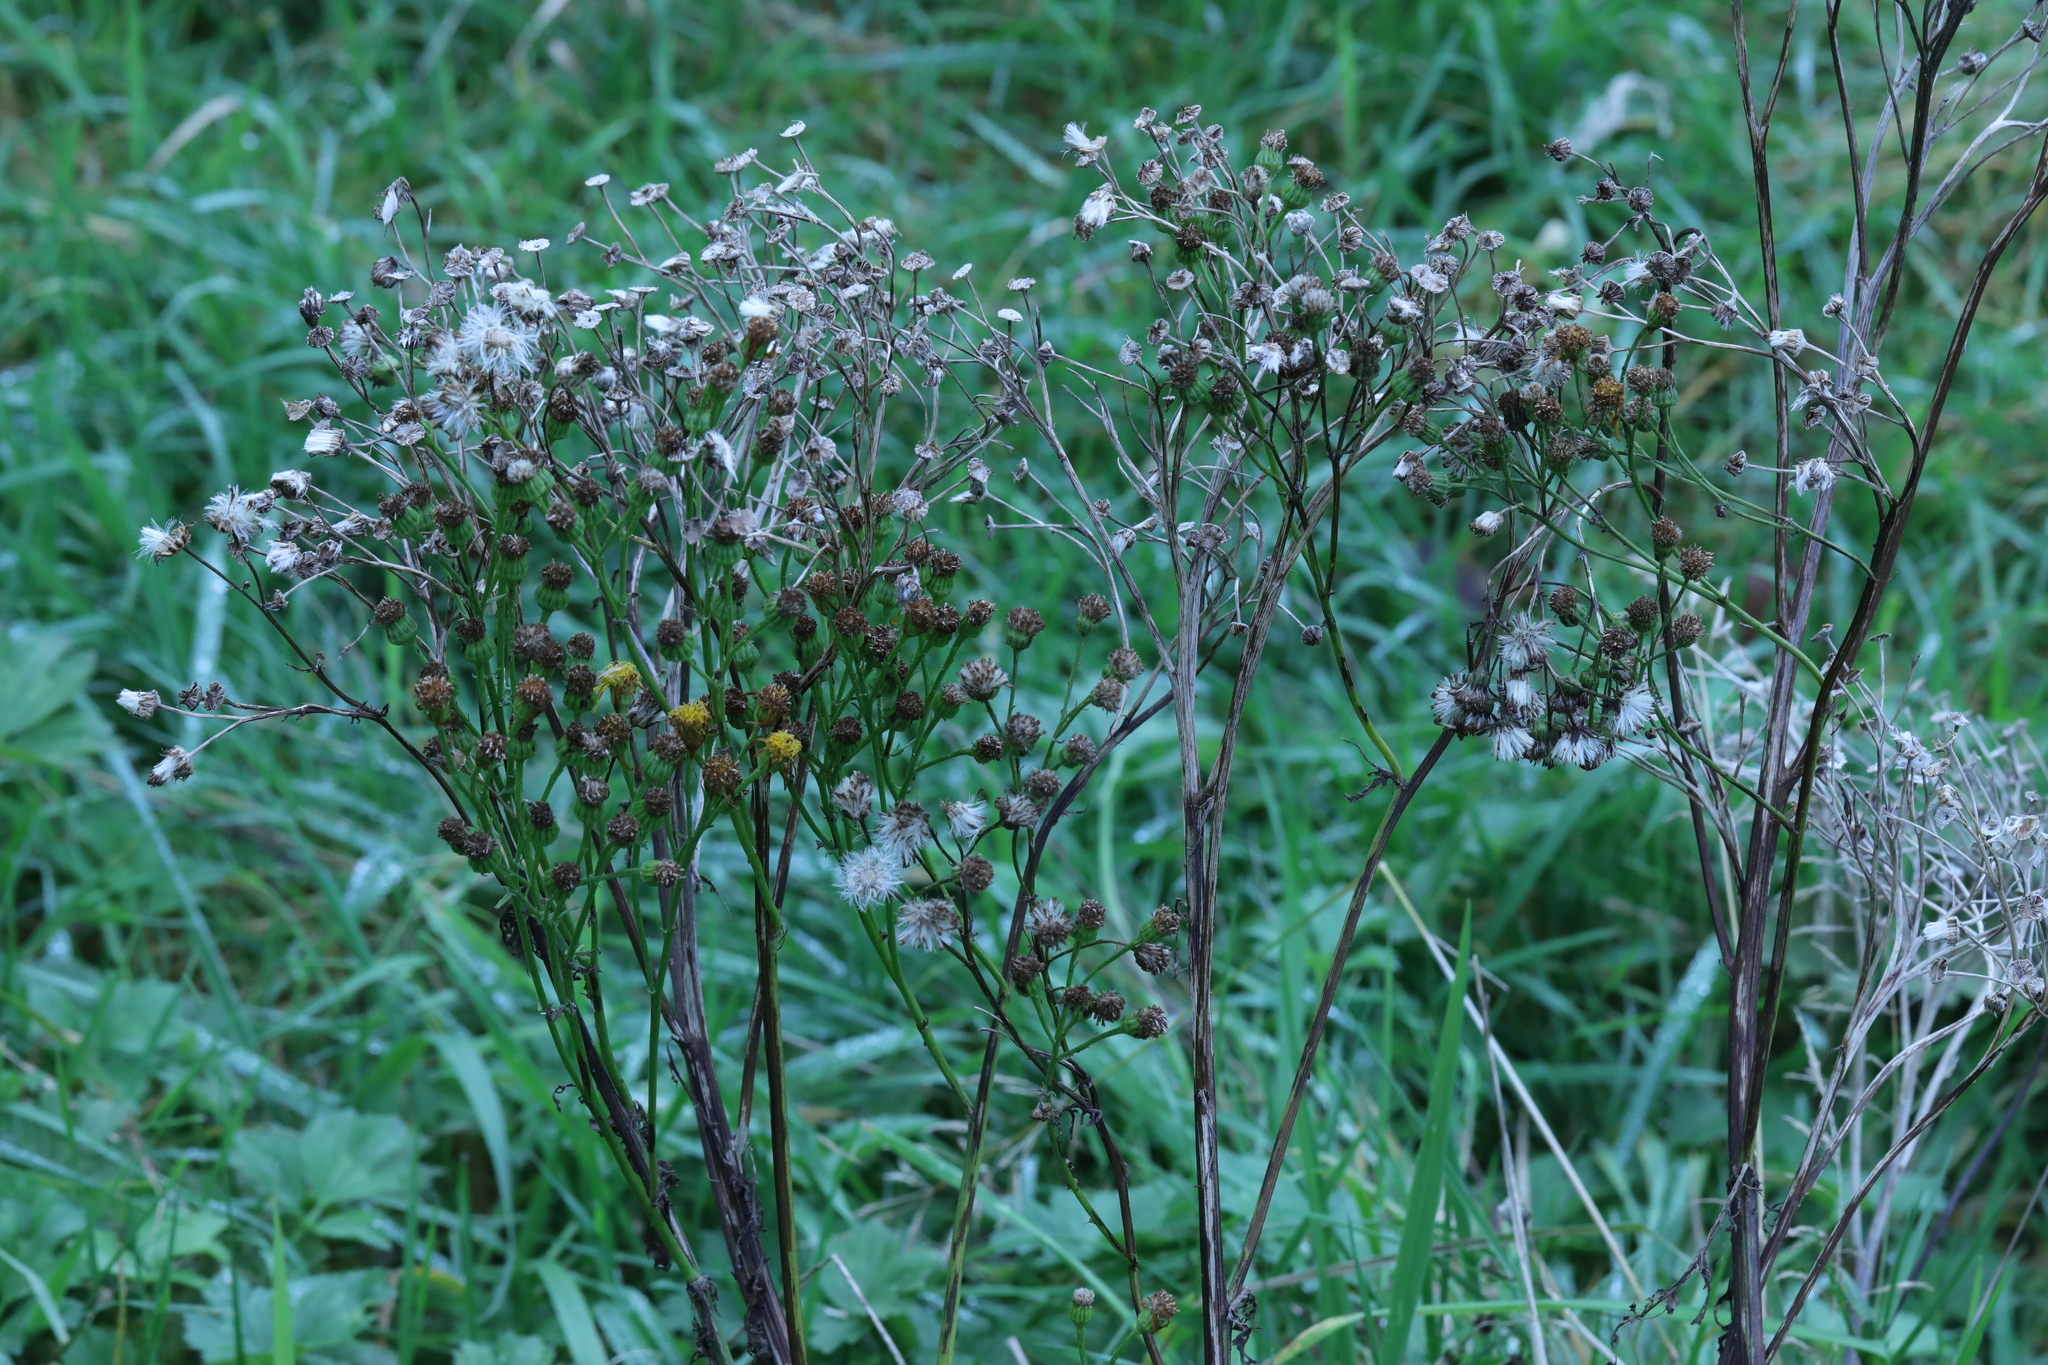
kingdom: Plantae
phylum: Tracheophyta
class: Magnoliopsida
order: Asterales
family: Asteraceae
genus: Jacobaea
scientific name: Jacobaea vulgaris
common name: Stinking willie
